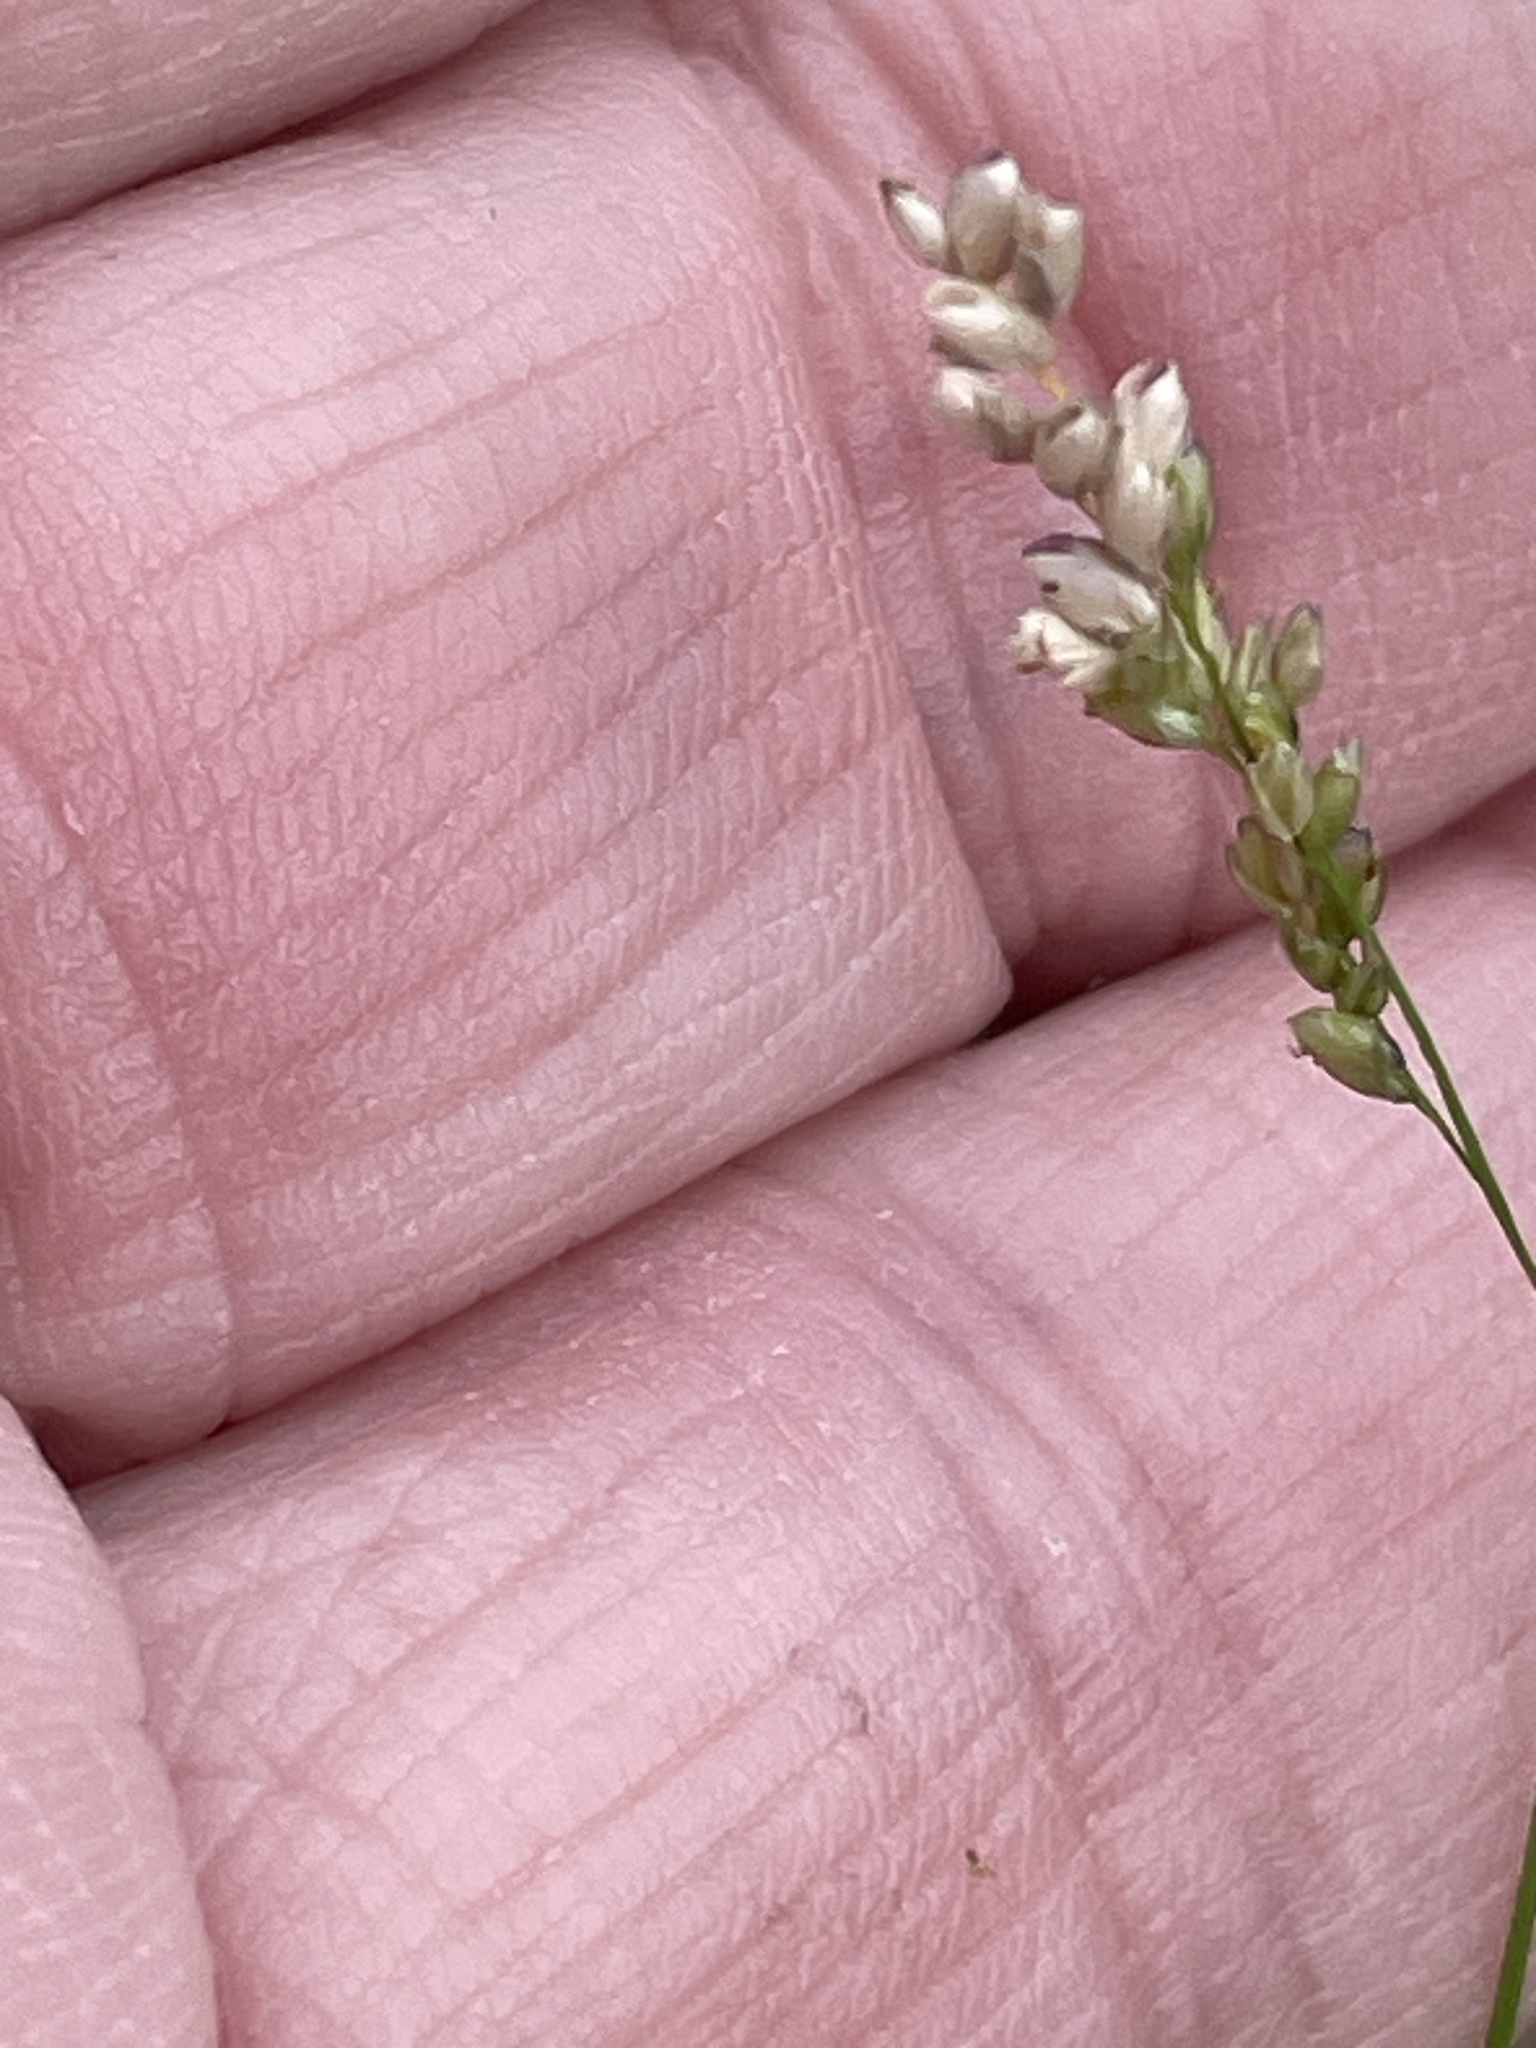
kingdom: Plantae
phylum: Tracheophyta
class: Liliopsida
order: Poales
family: Poaceae
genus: Steinchisma
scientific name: Steinchisma hians
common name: Gaping panic grass
